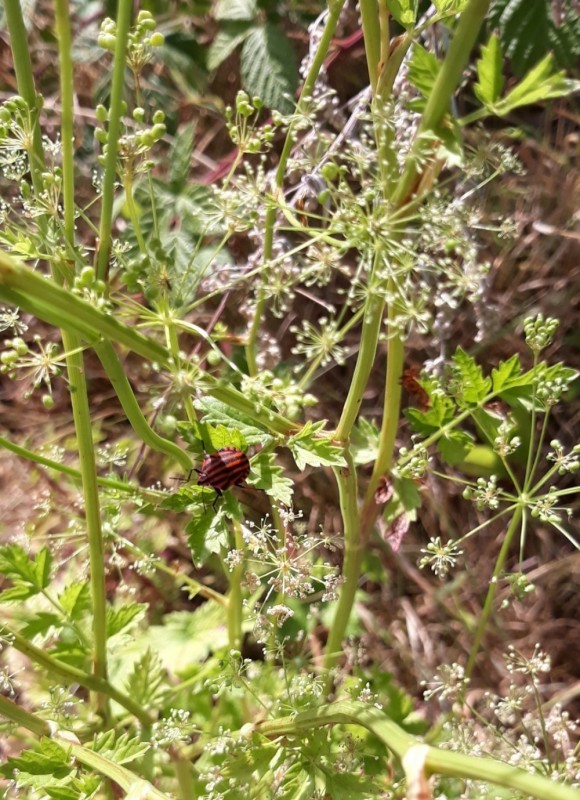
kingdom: Animalia
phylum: Arthropoda
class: Insecta
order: Hemiptera
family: Pentatomidae
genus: Graphosoma
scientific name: Graphosoma italicum
